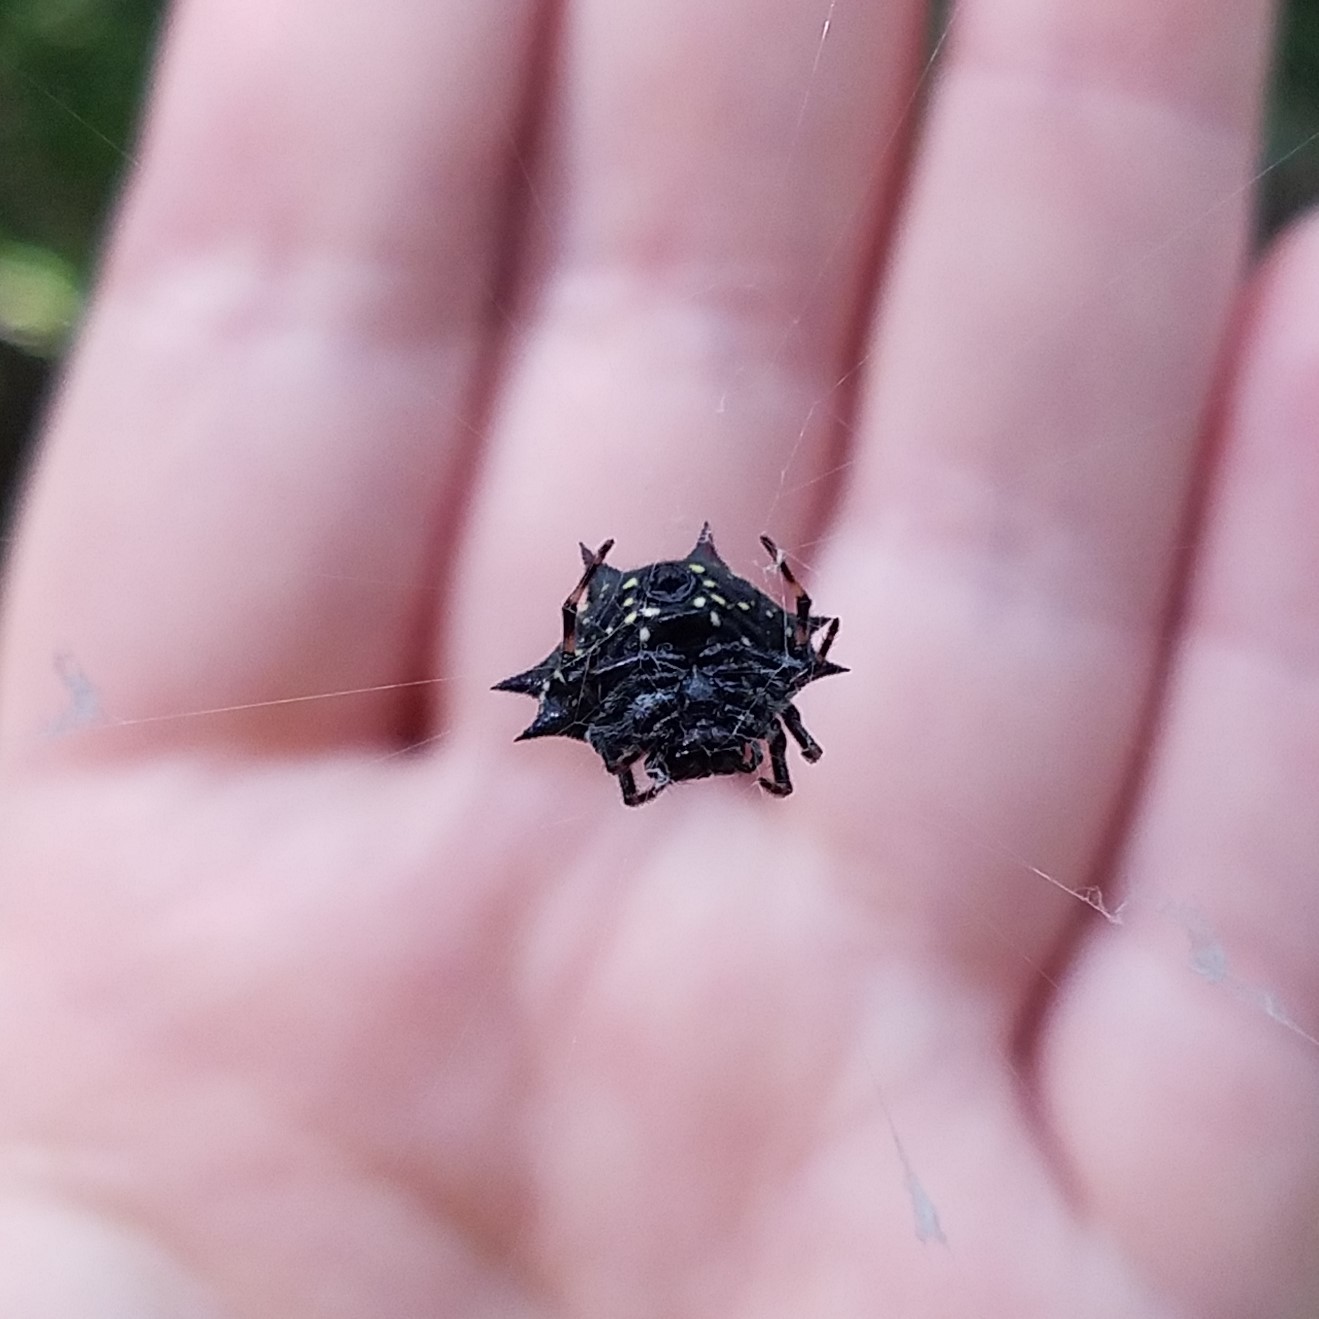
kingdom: Animalia
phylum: Arthropoda
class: Arachnida
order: Araneae
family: Araneidae
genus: Gasteracantha
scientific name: Gasteracantha cancriformis
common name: Orb weavers
